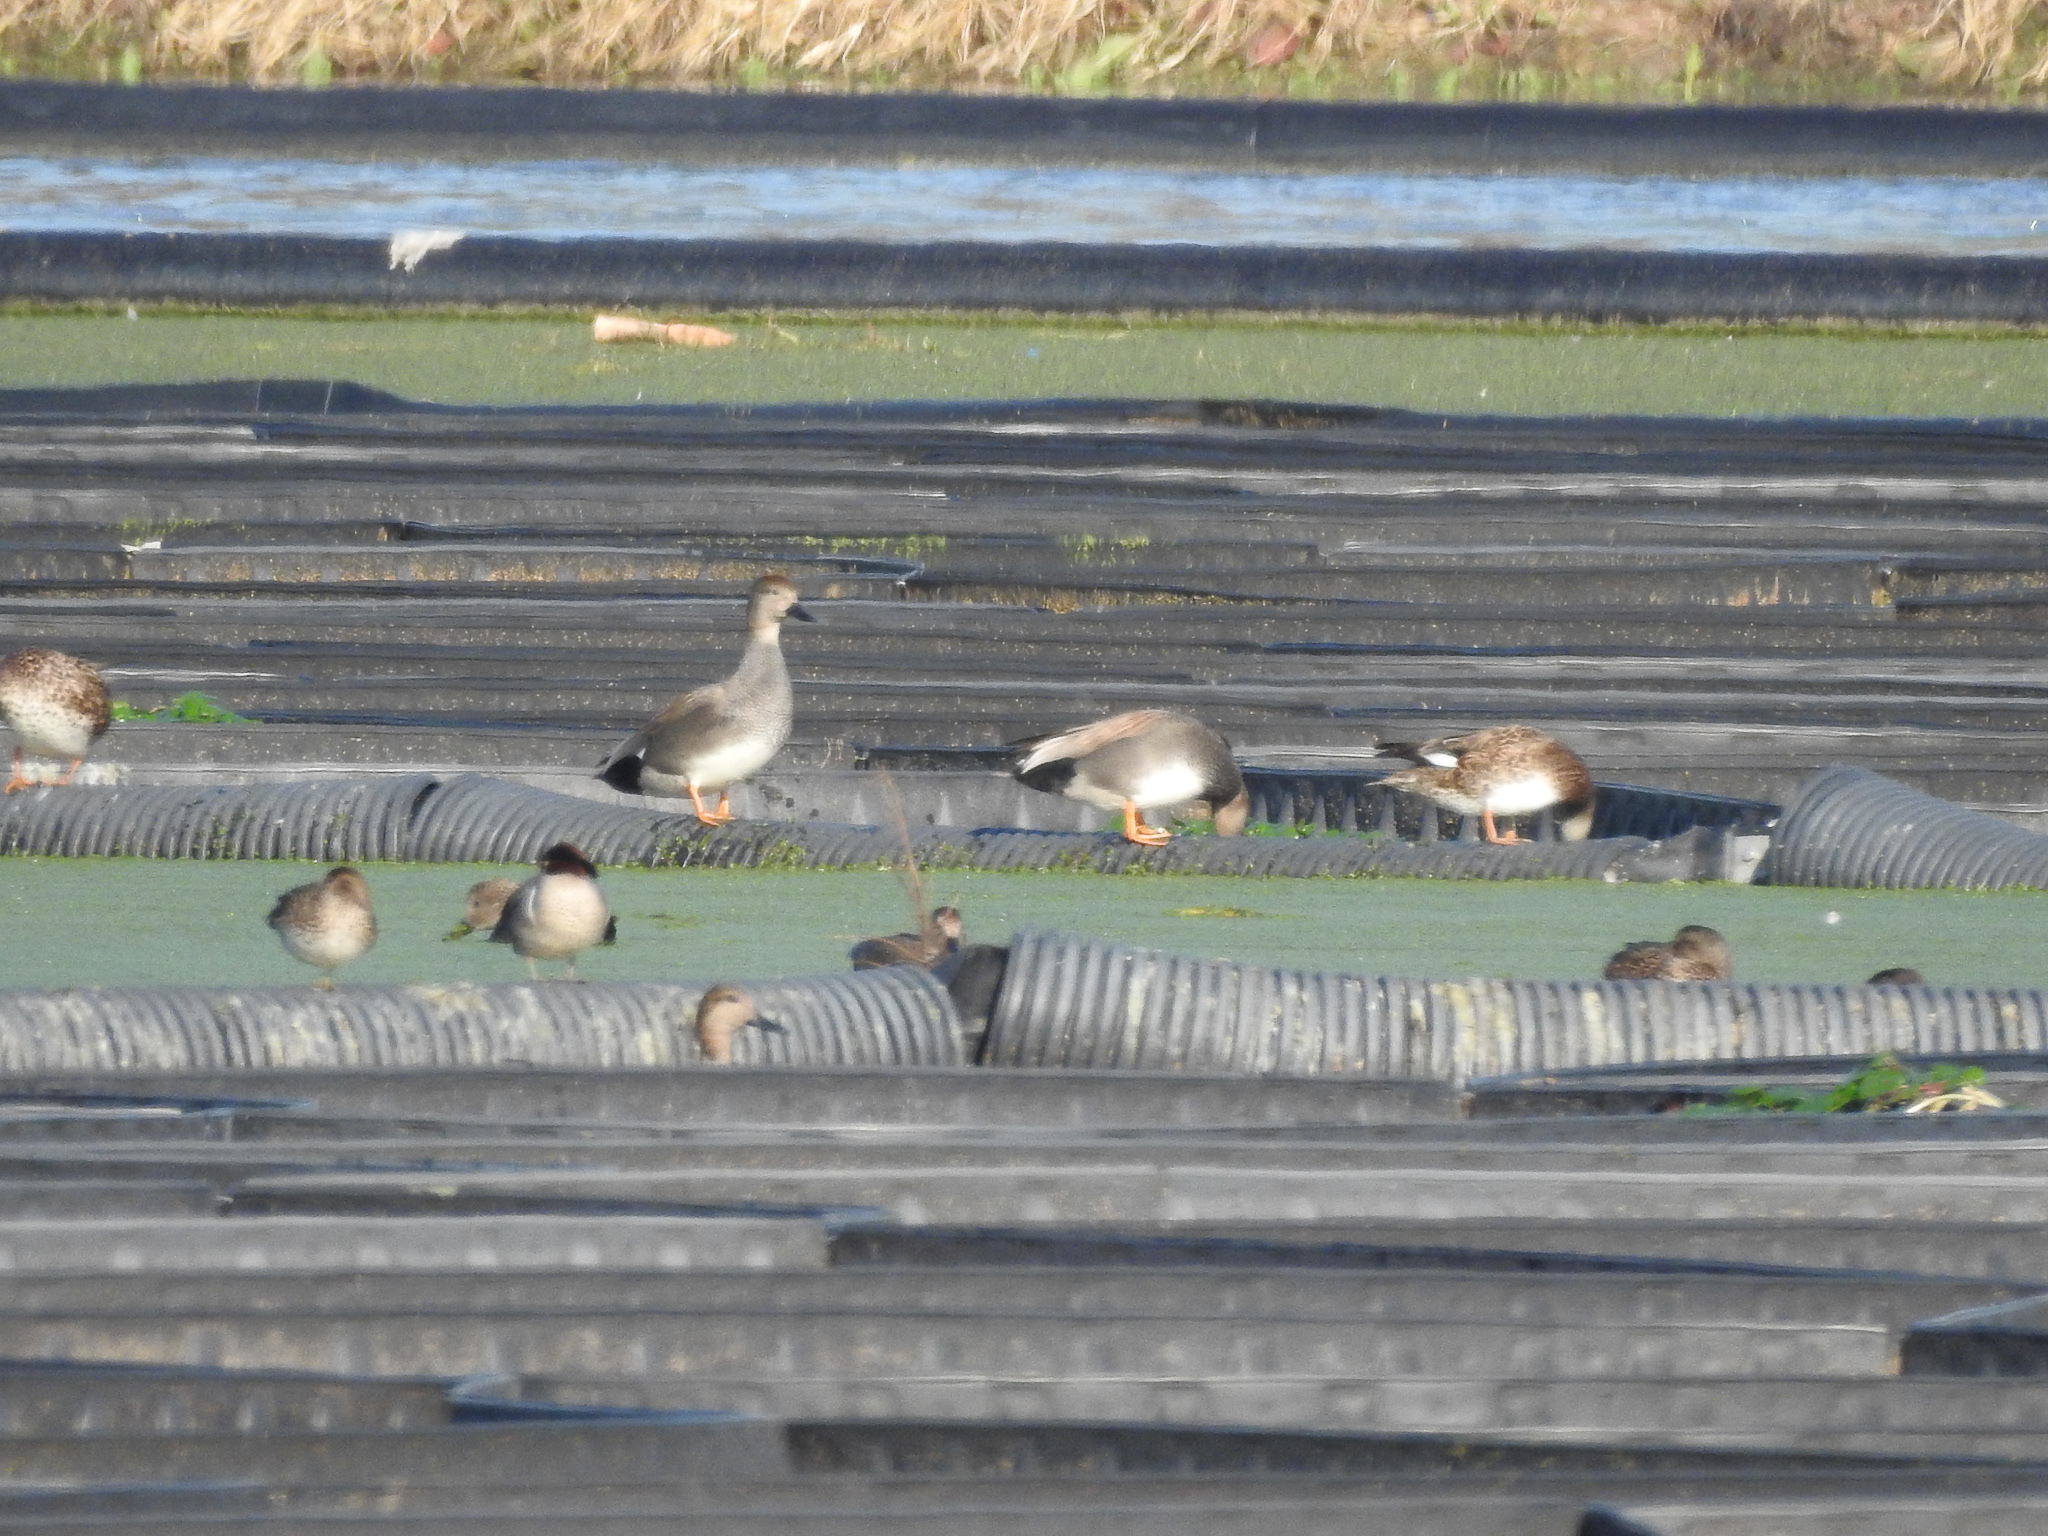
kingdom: Animalia
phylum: Chordata
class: Aves
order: Anseriformes
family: Anatidae
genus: Mareca
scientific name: Mareca strepera
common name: Gadwall
